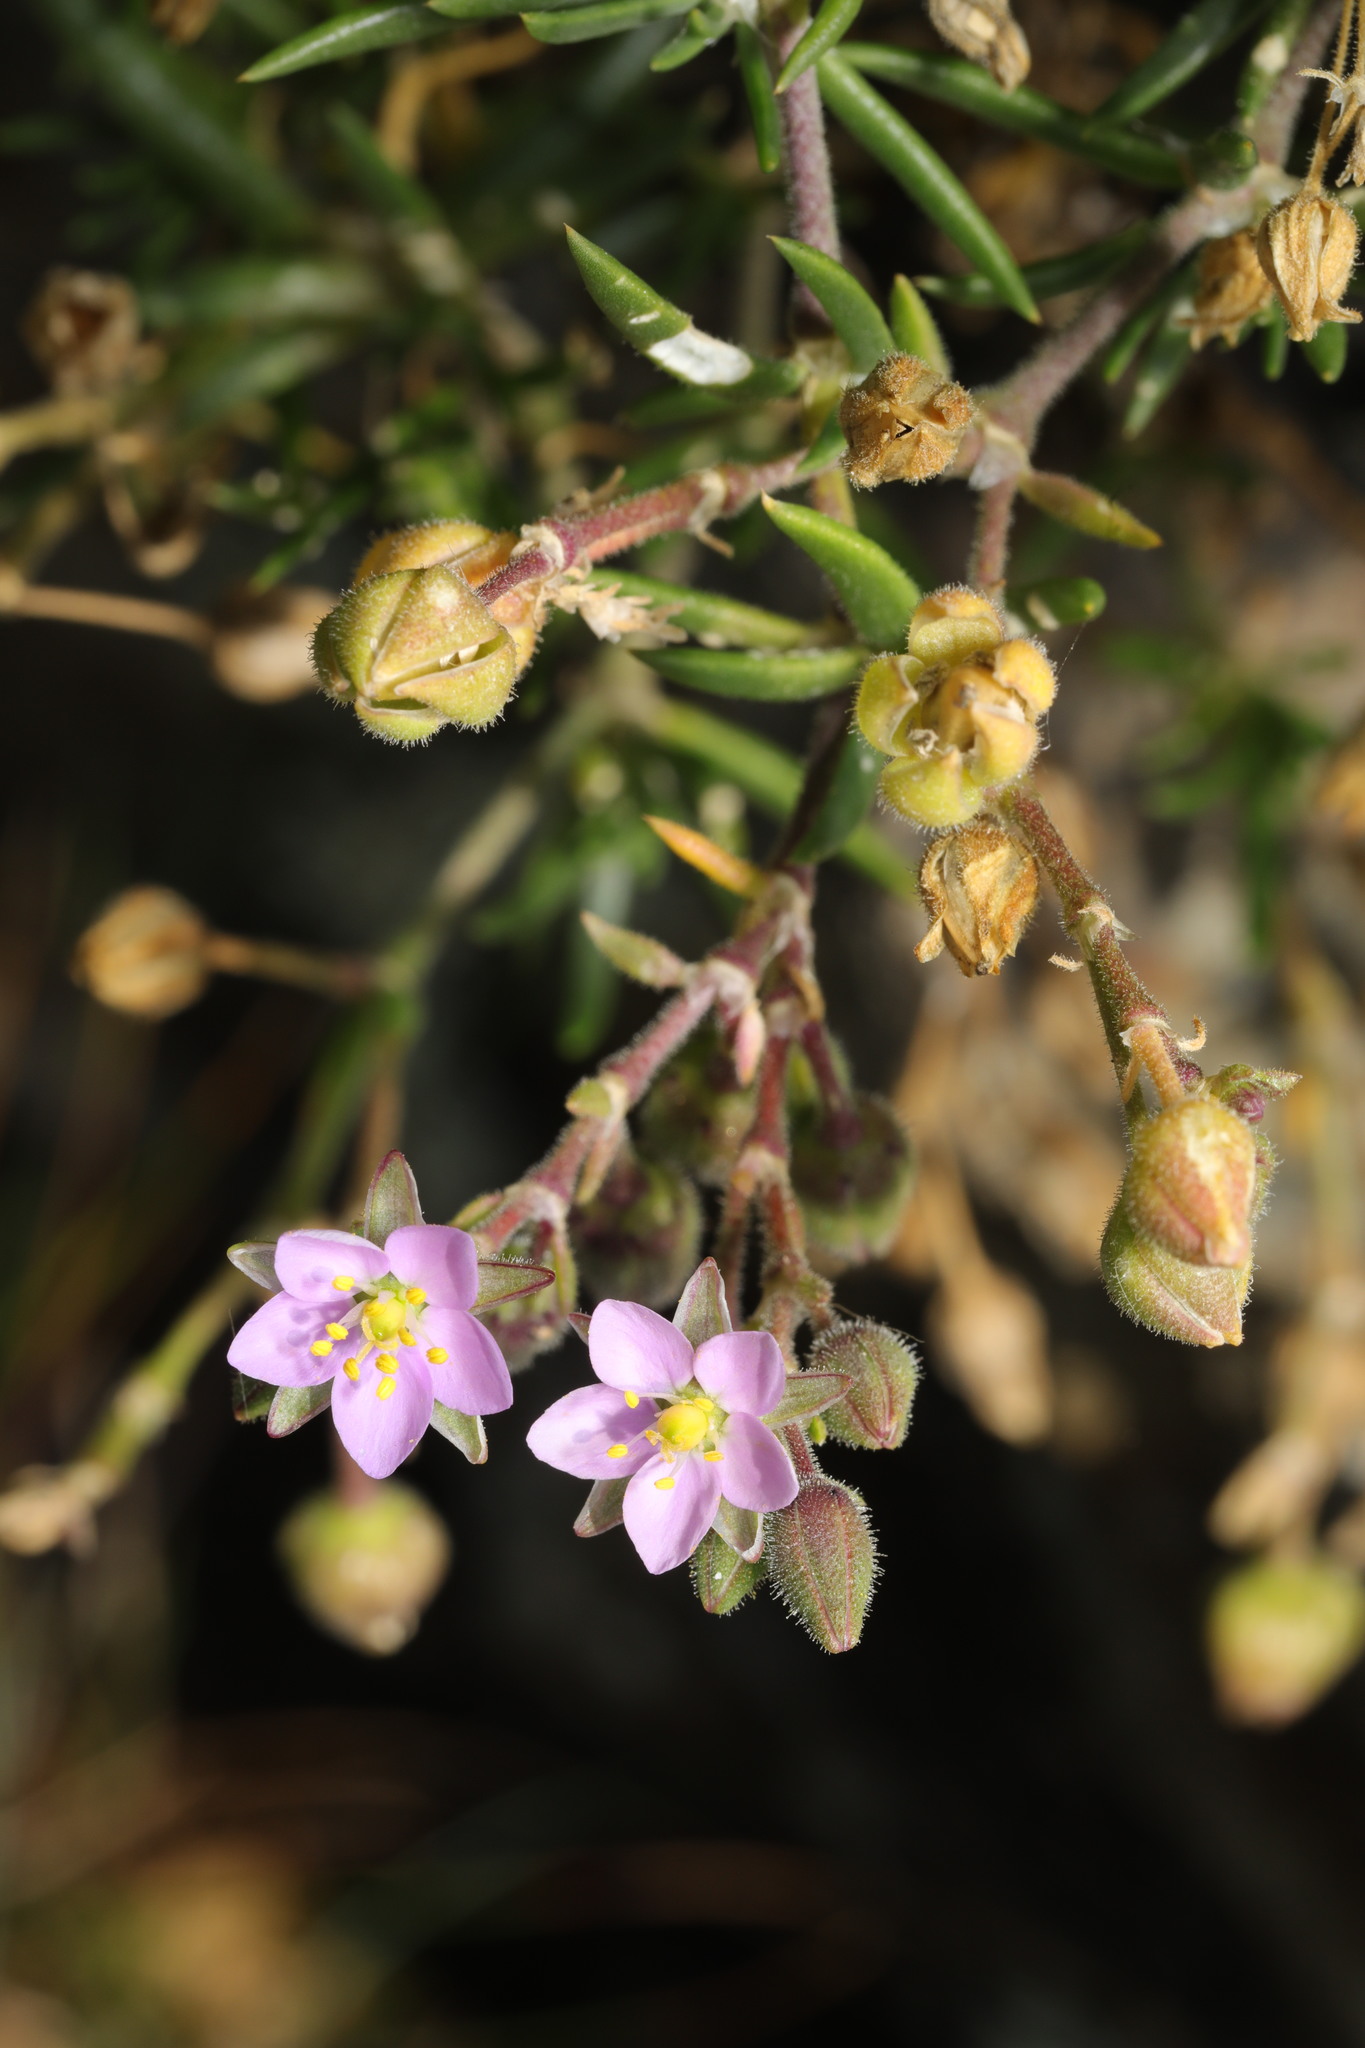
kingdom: Plantae
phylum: Tracheophyta
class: Magnoliopsida
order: Caryophyllales
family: Caryophyllaceae
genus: Spergularia
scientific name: Spergularia rubra
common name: Red sand-spurrey
